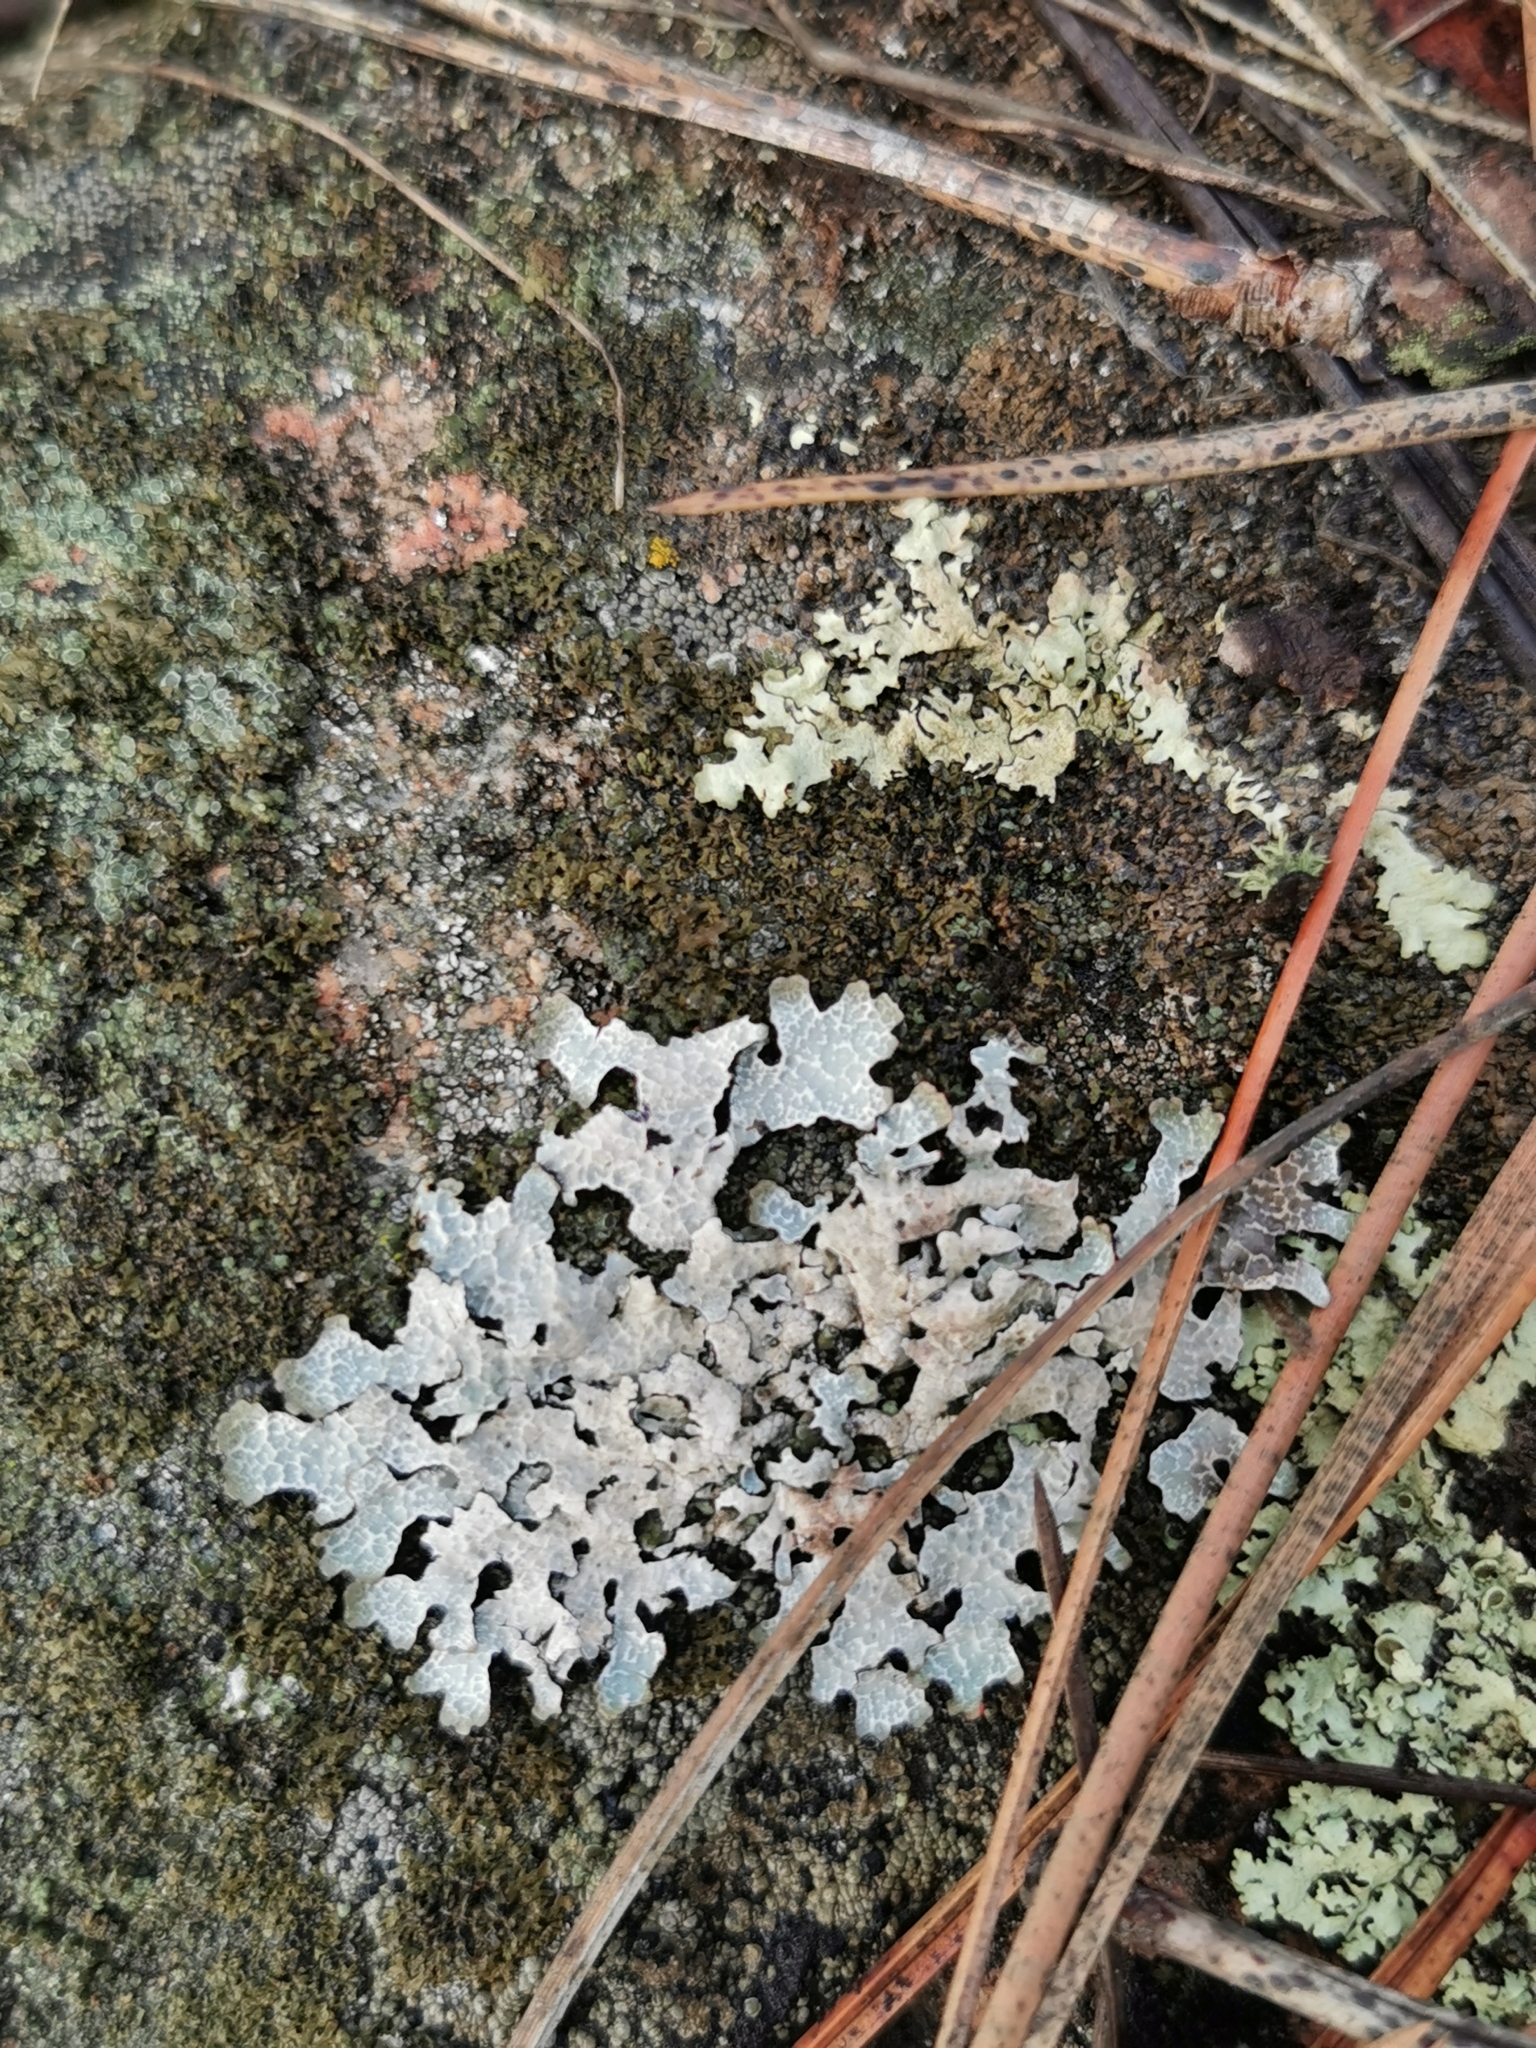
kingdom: Fungi
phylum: Ascomycota
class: Lecanoromycetes
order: Lecanorales
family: Parmeliaceae
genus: Parmelia
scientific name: Parmelia sulcata
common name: Netted shield lichen
